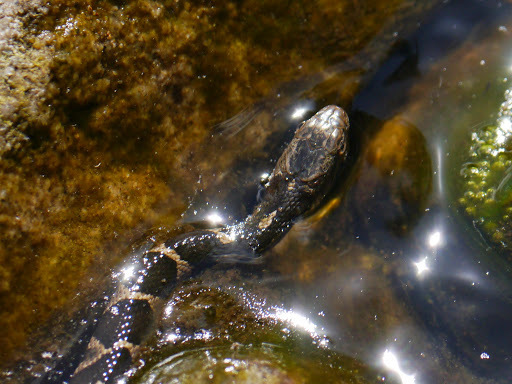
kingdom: Animalia
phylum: Chordata
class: Squamata
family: Colubridae
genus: Nerodia
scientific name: Nerodia sipedon
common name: Northern water snake
